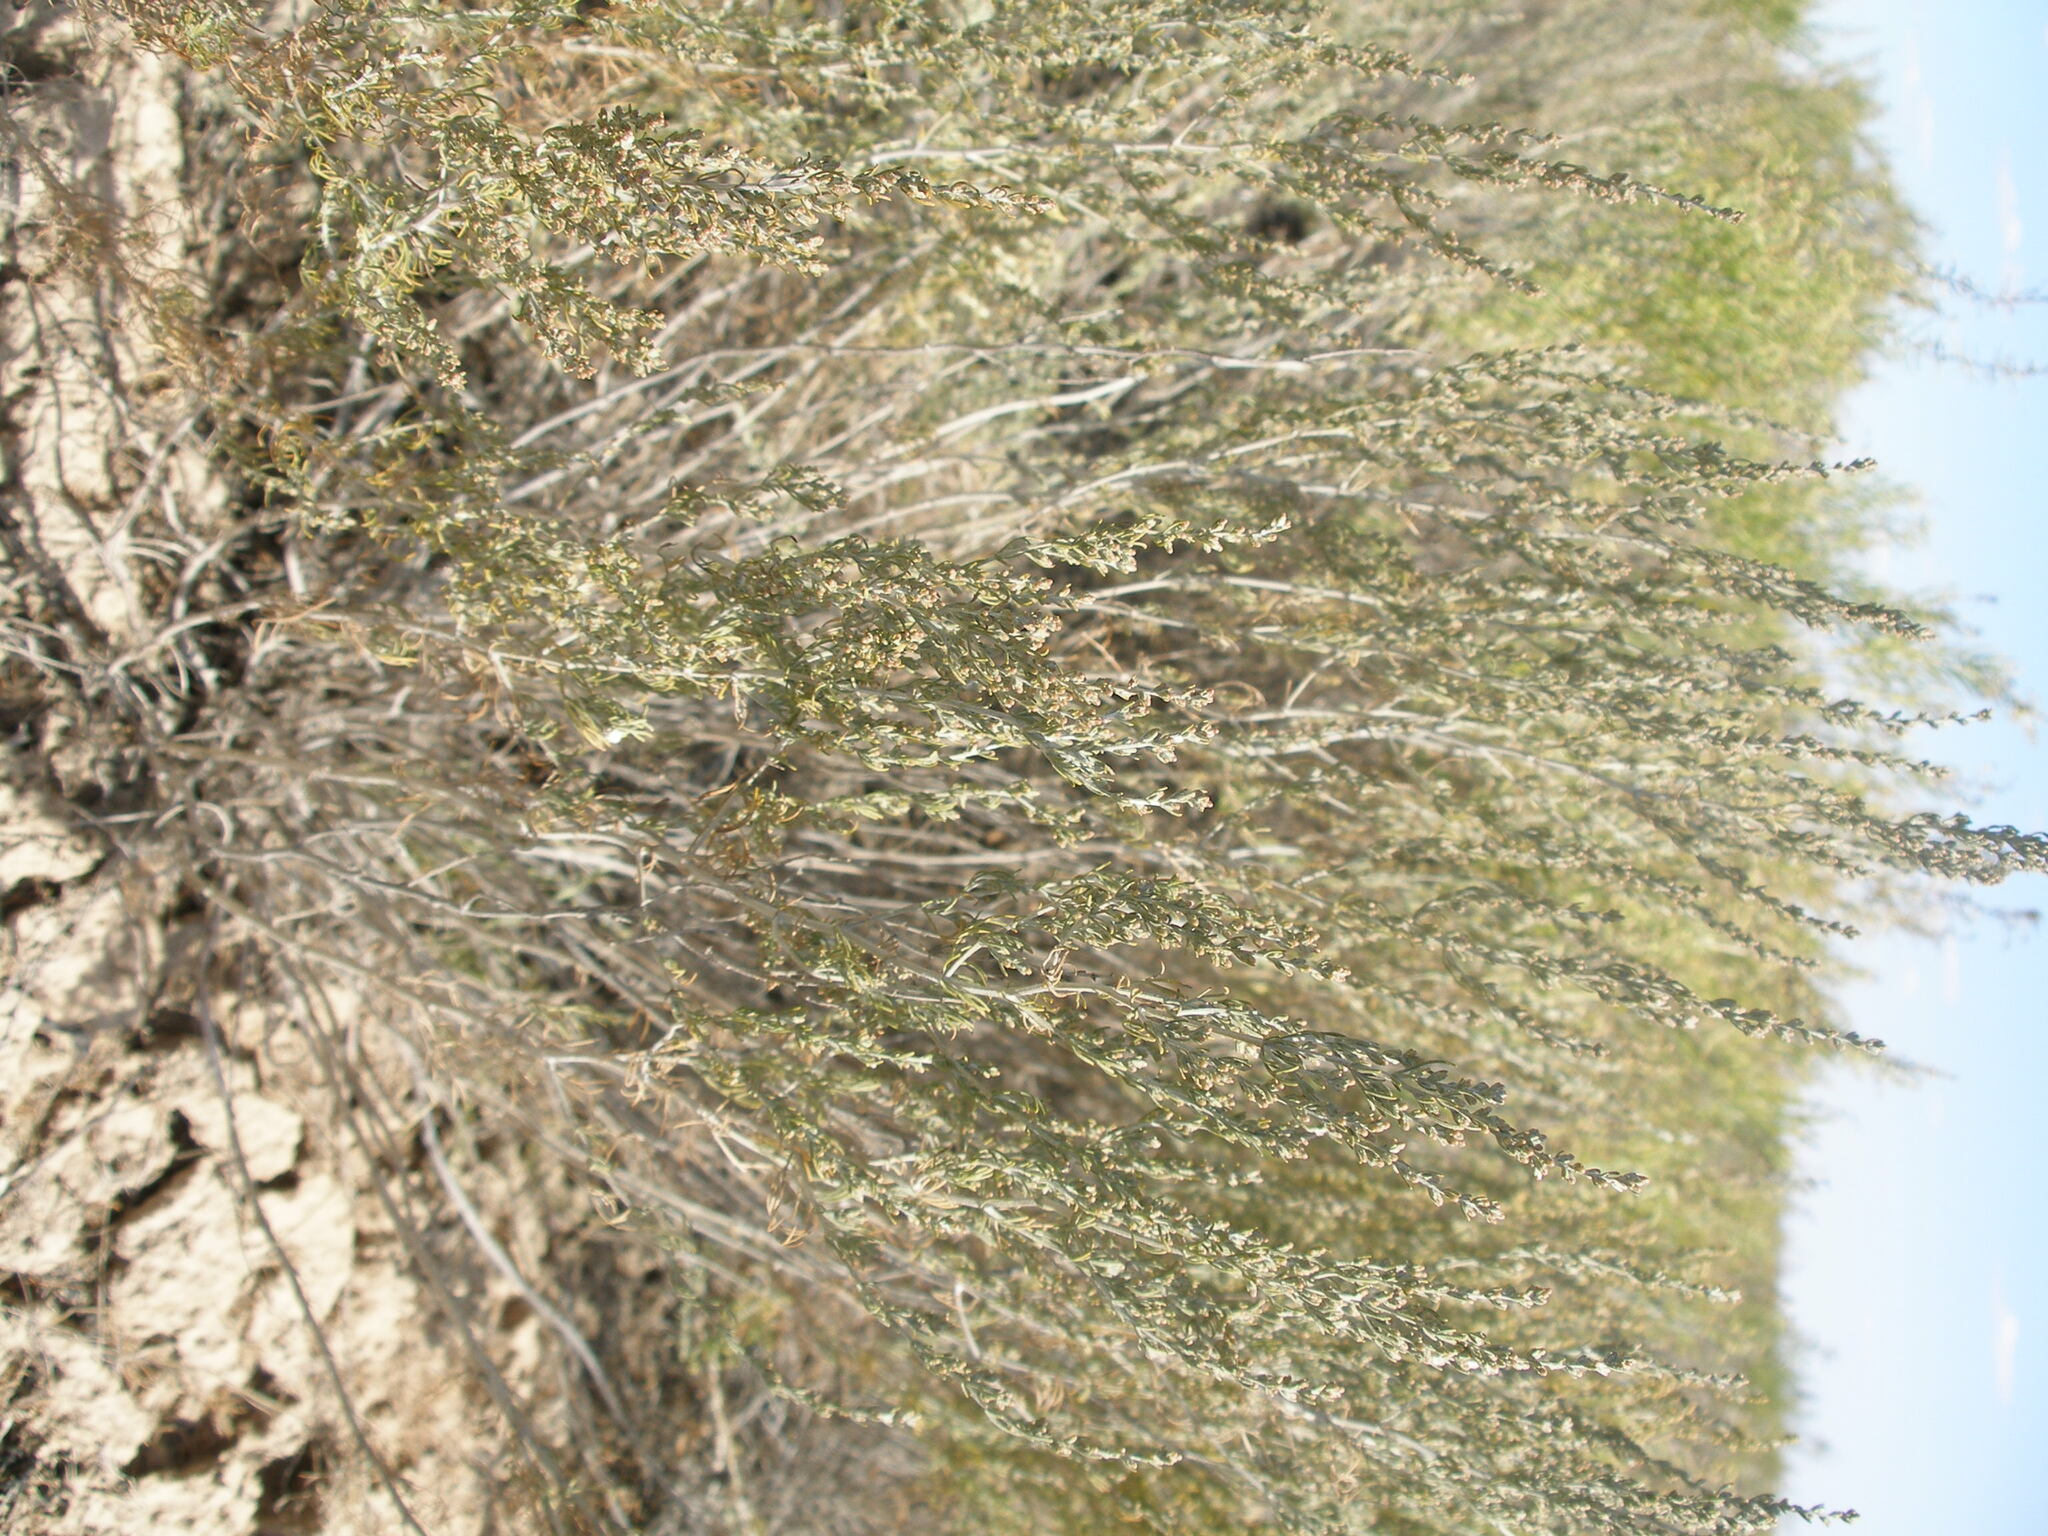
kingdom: Plantae
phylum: Tracheophyta
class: Magnoliopsida
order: Asterales
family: Asteraceae
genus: Artemisia
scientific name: Artemisia taurica
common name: Tauric wormwood
